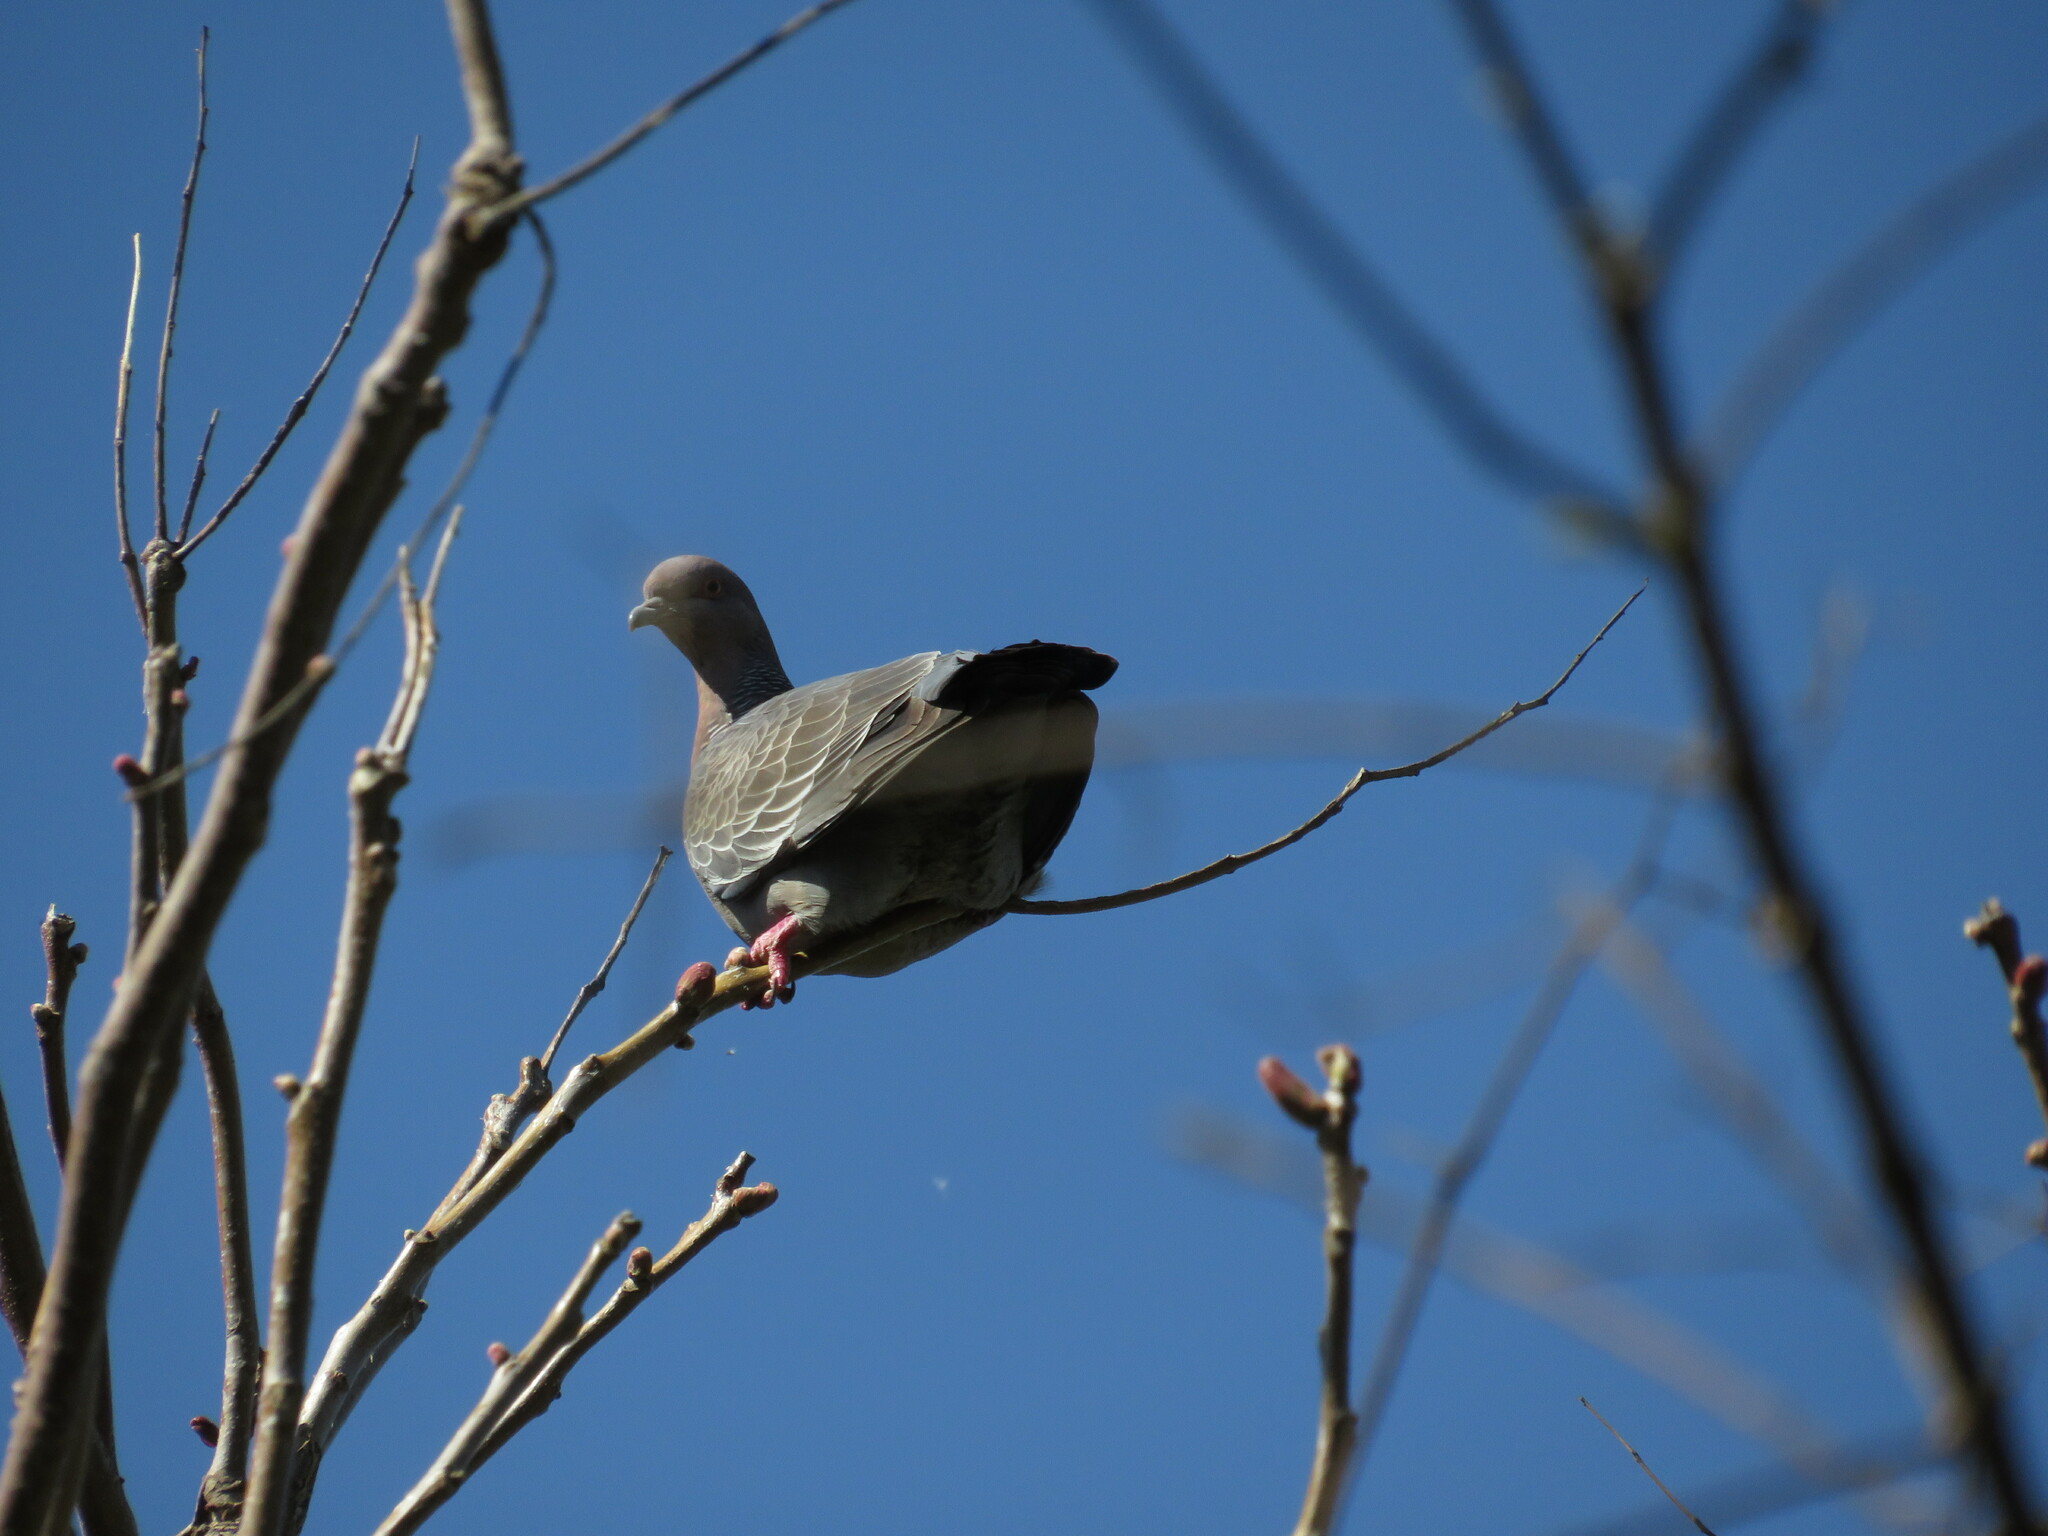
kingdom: Animalia
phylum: Chordata
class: Aves
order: Columbiformes
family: Columbidae
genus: Patagioenas
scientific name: Patagioenas picazuro
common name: Picazuro pigeon
